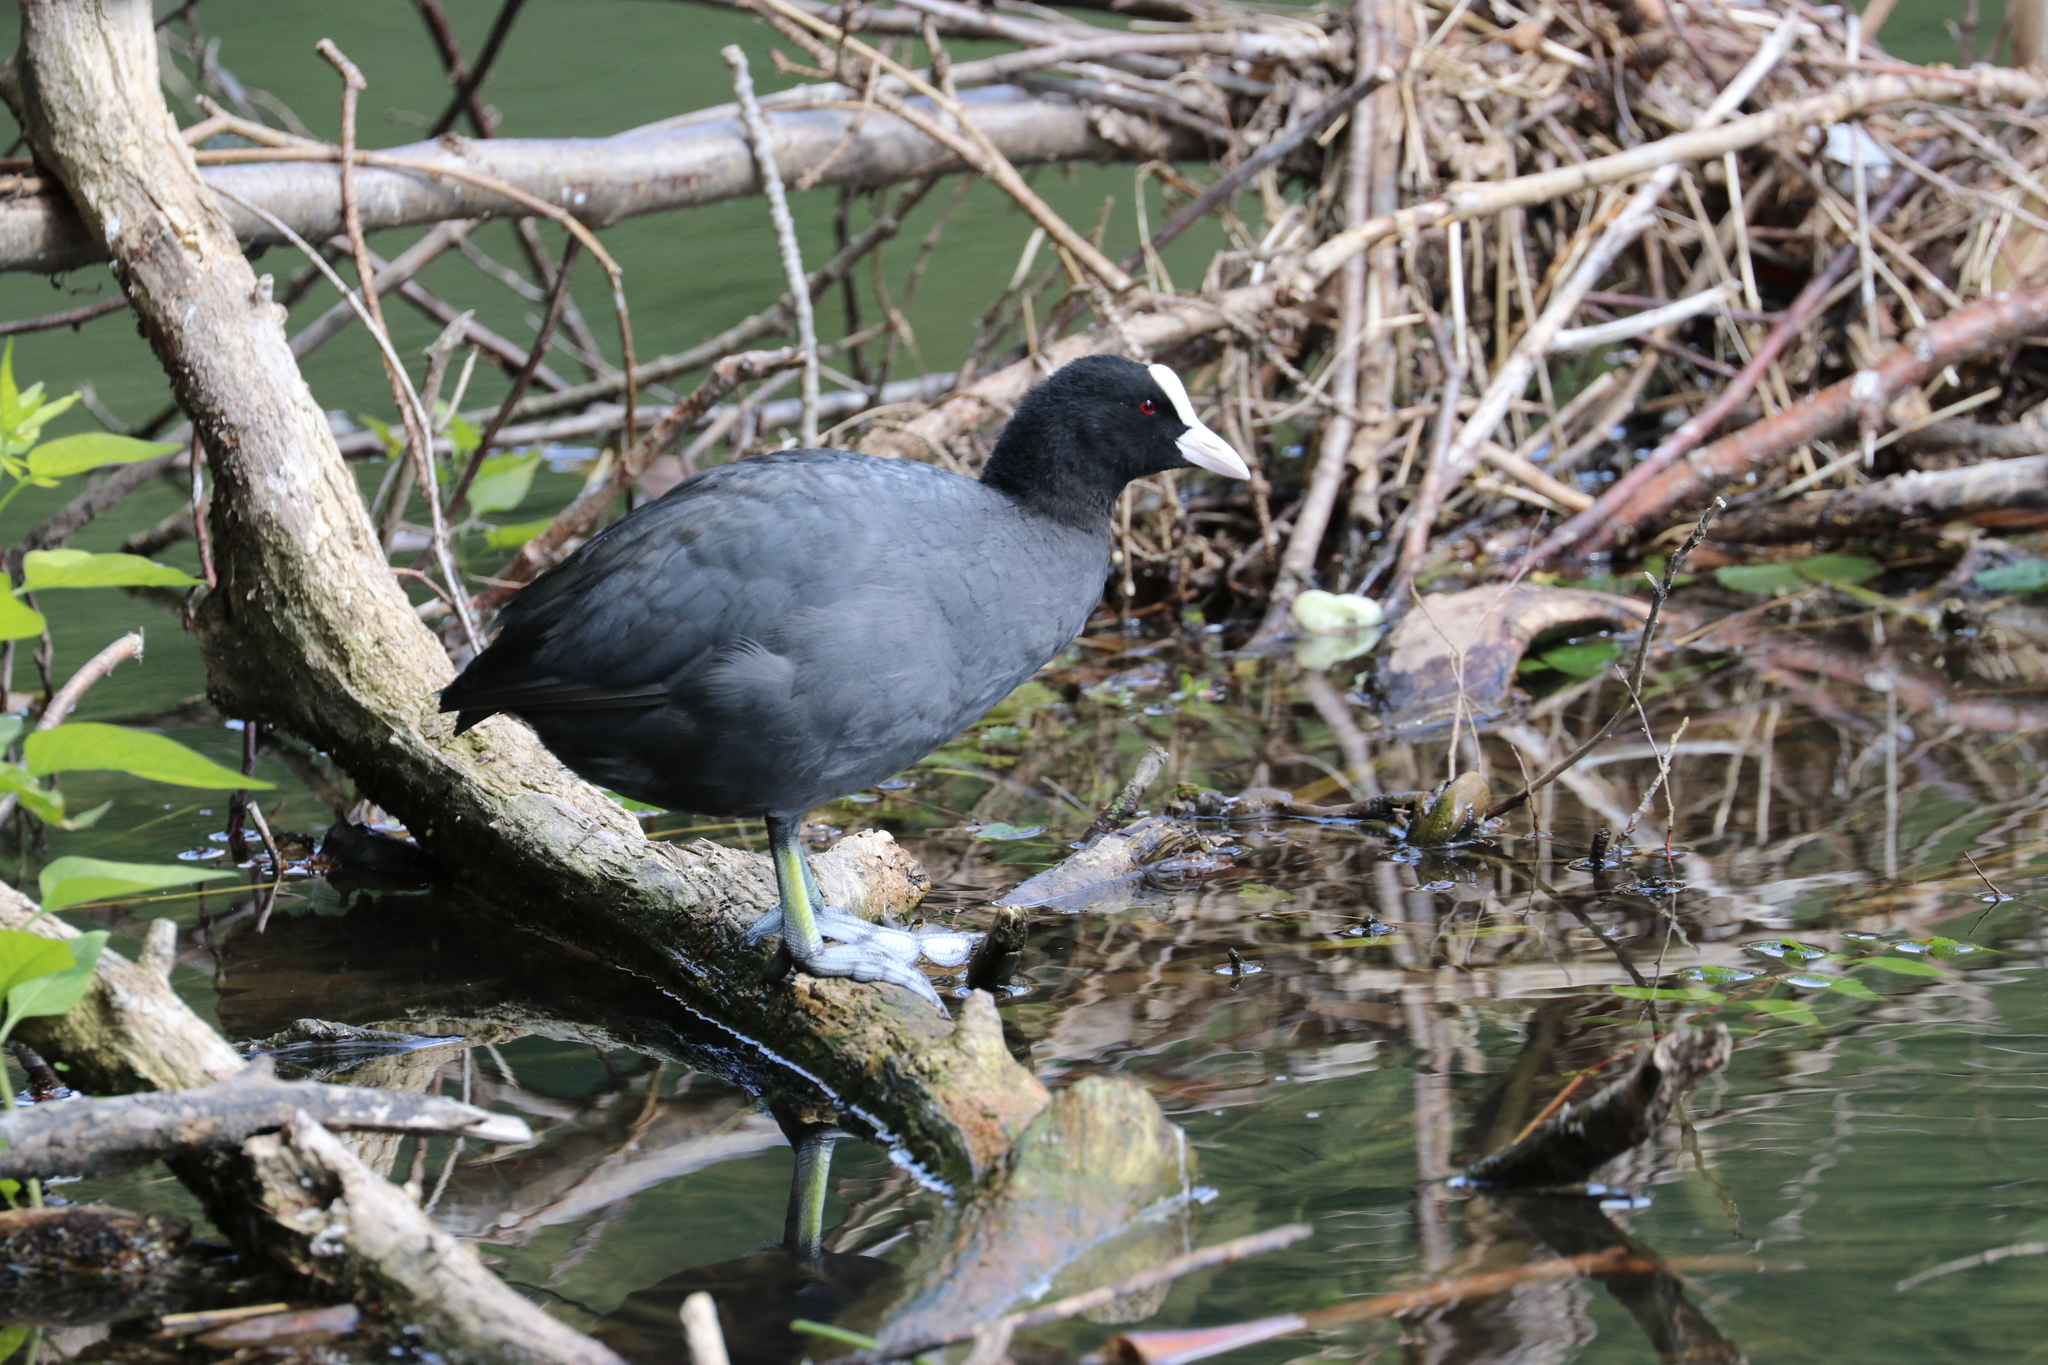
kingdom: Animalia
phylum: Chordata
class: Aves
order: Gruiformes
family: Rallidae
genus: Fulica
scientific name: Fulica atra
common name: Eurasian coot
